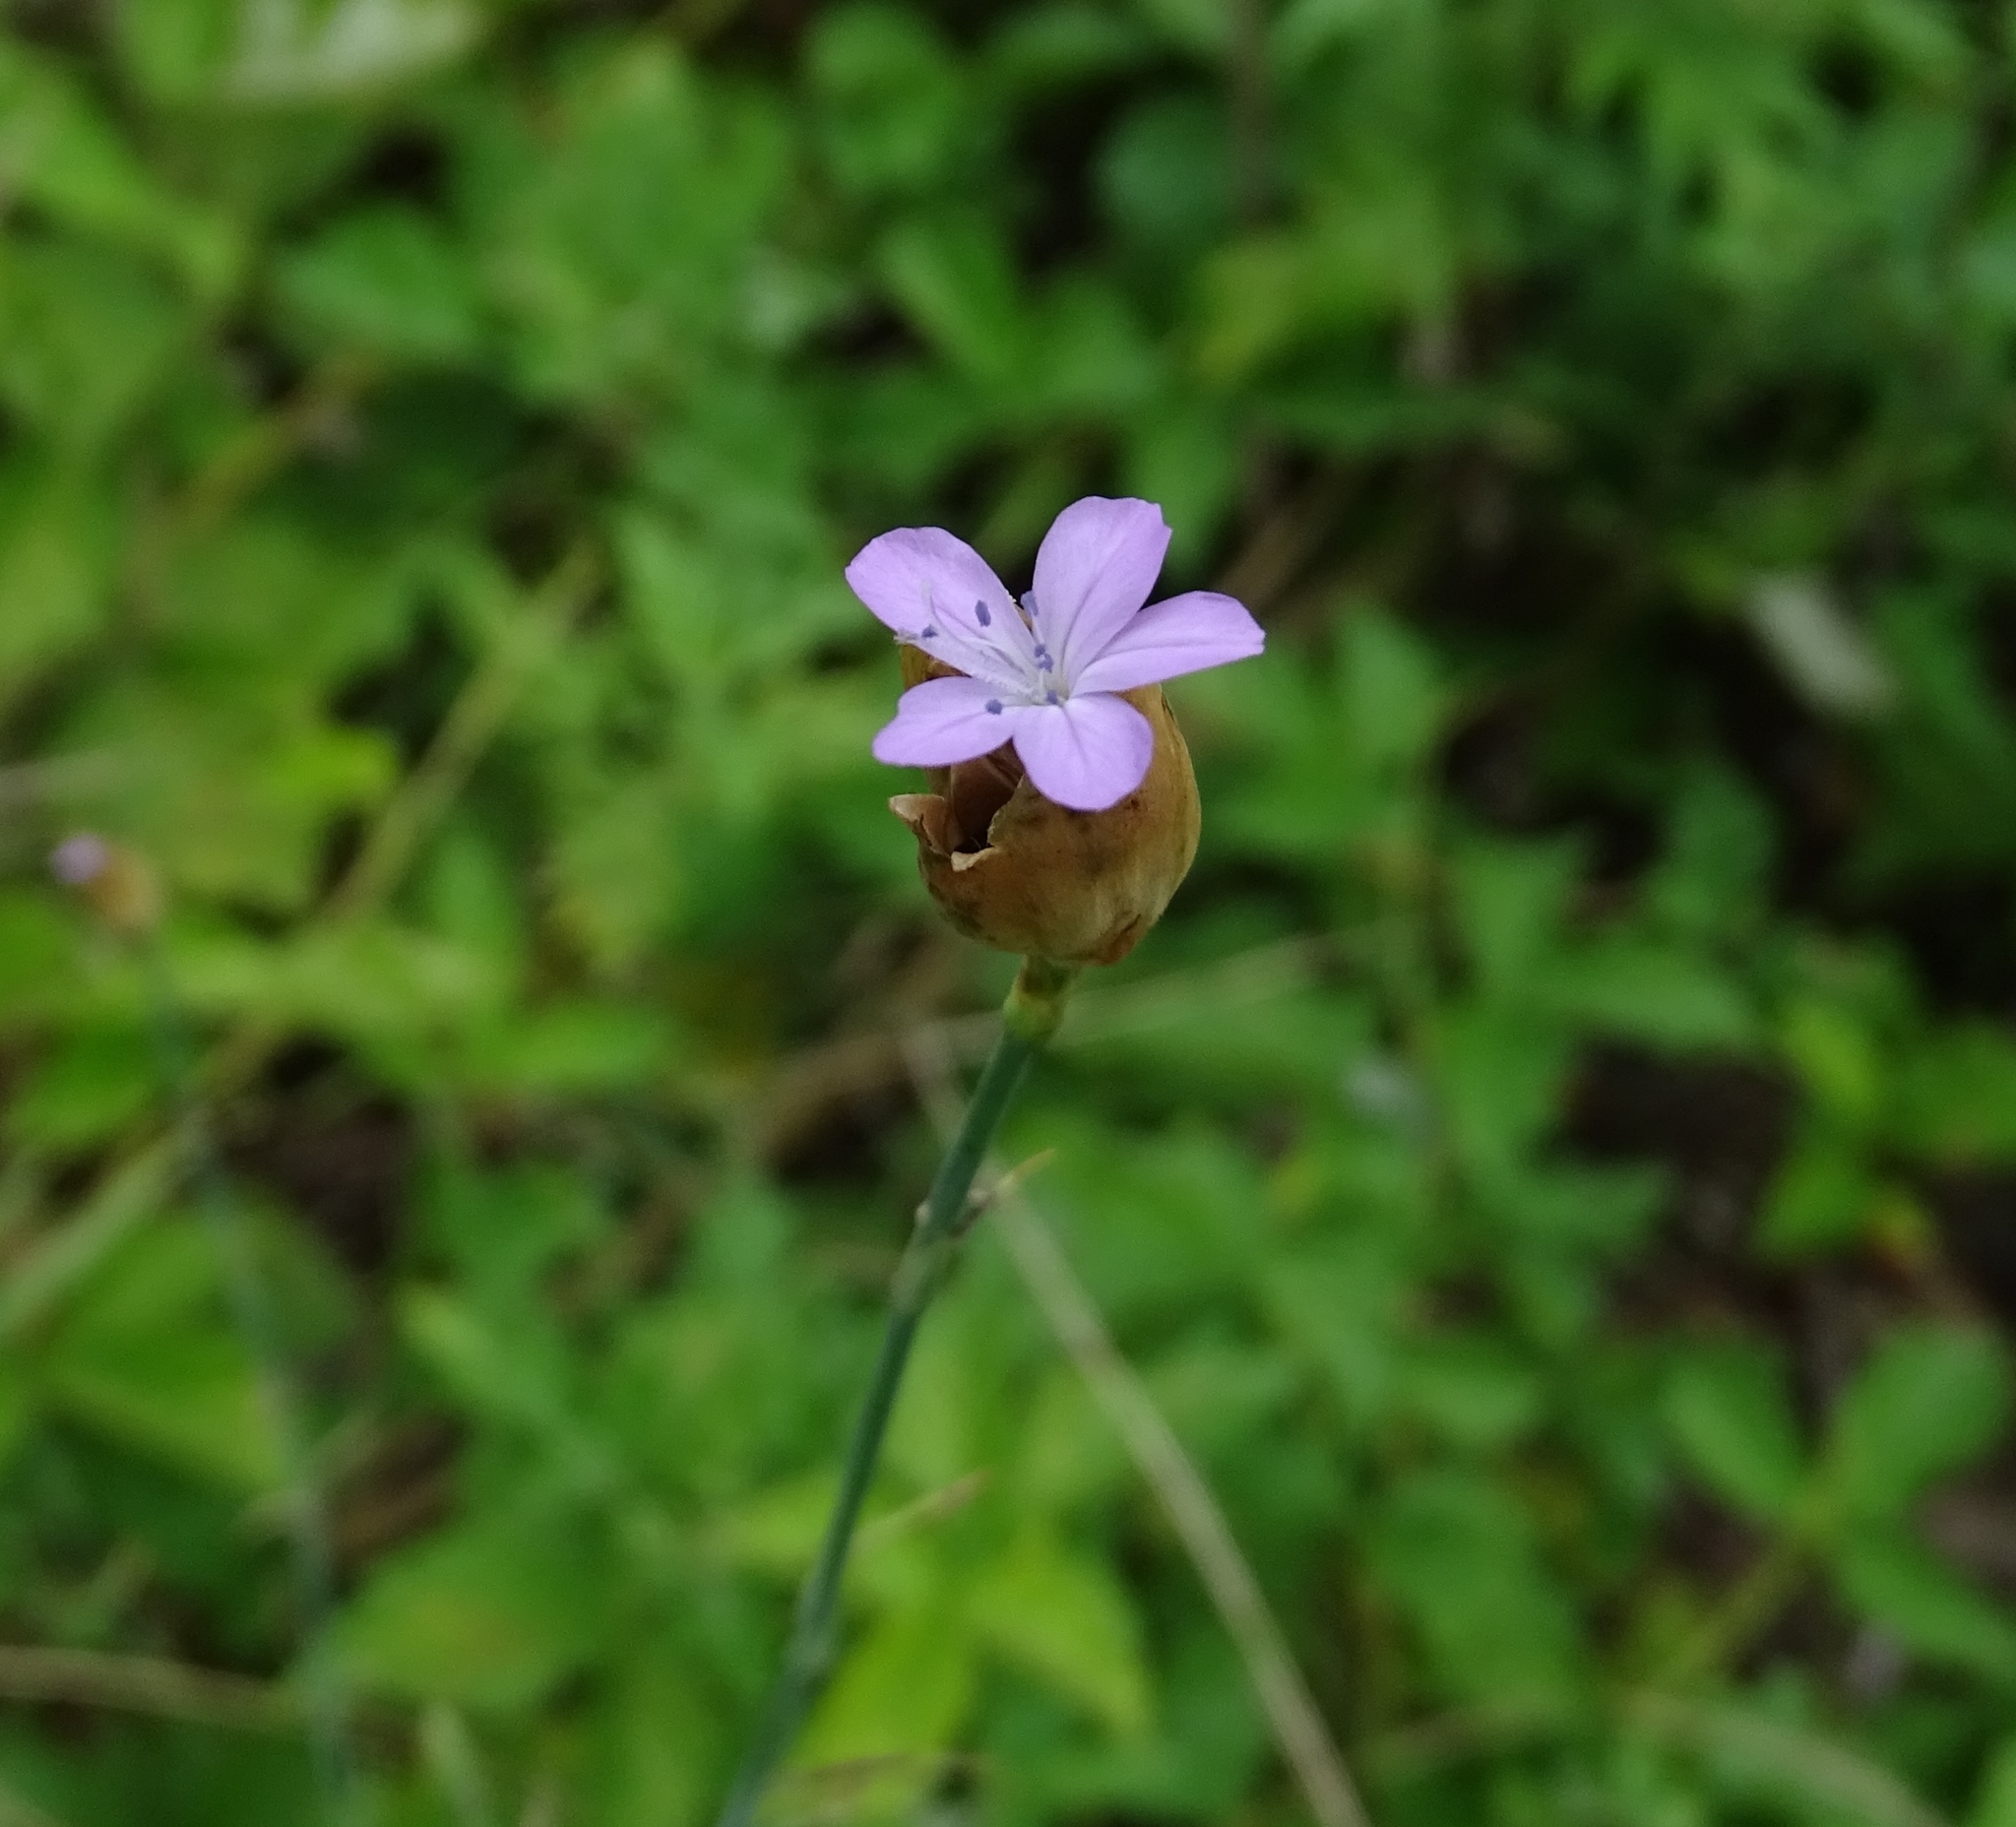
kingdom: Plantae
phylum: Tracheophyta
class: Magnoliopsida
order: Caryophyllales
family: Caryophyllaceae
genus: Petrorhagia
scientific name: Petrorhagia prolifera
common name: Proliferous pink
